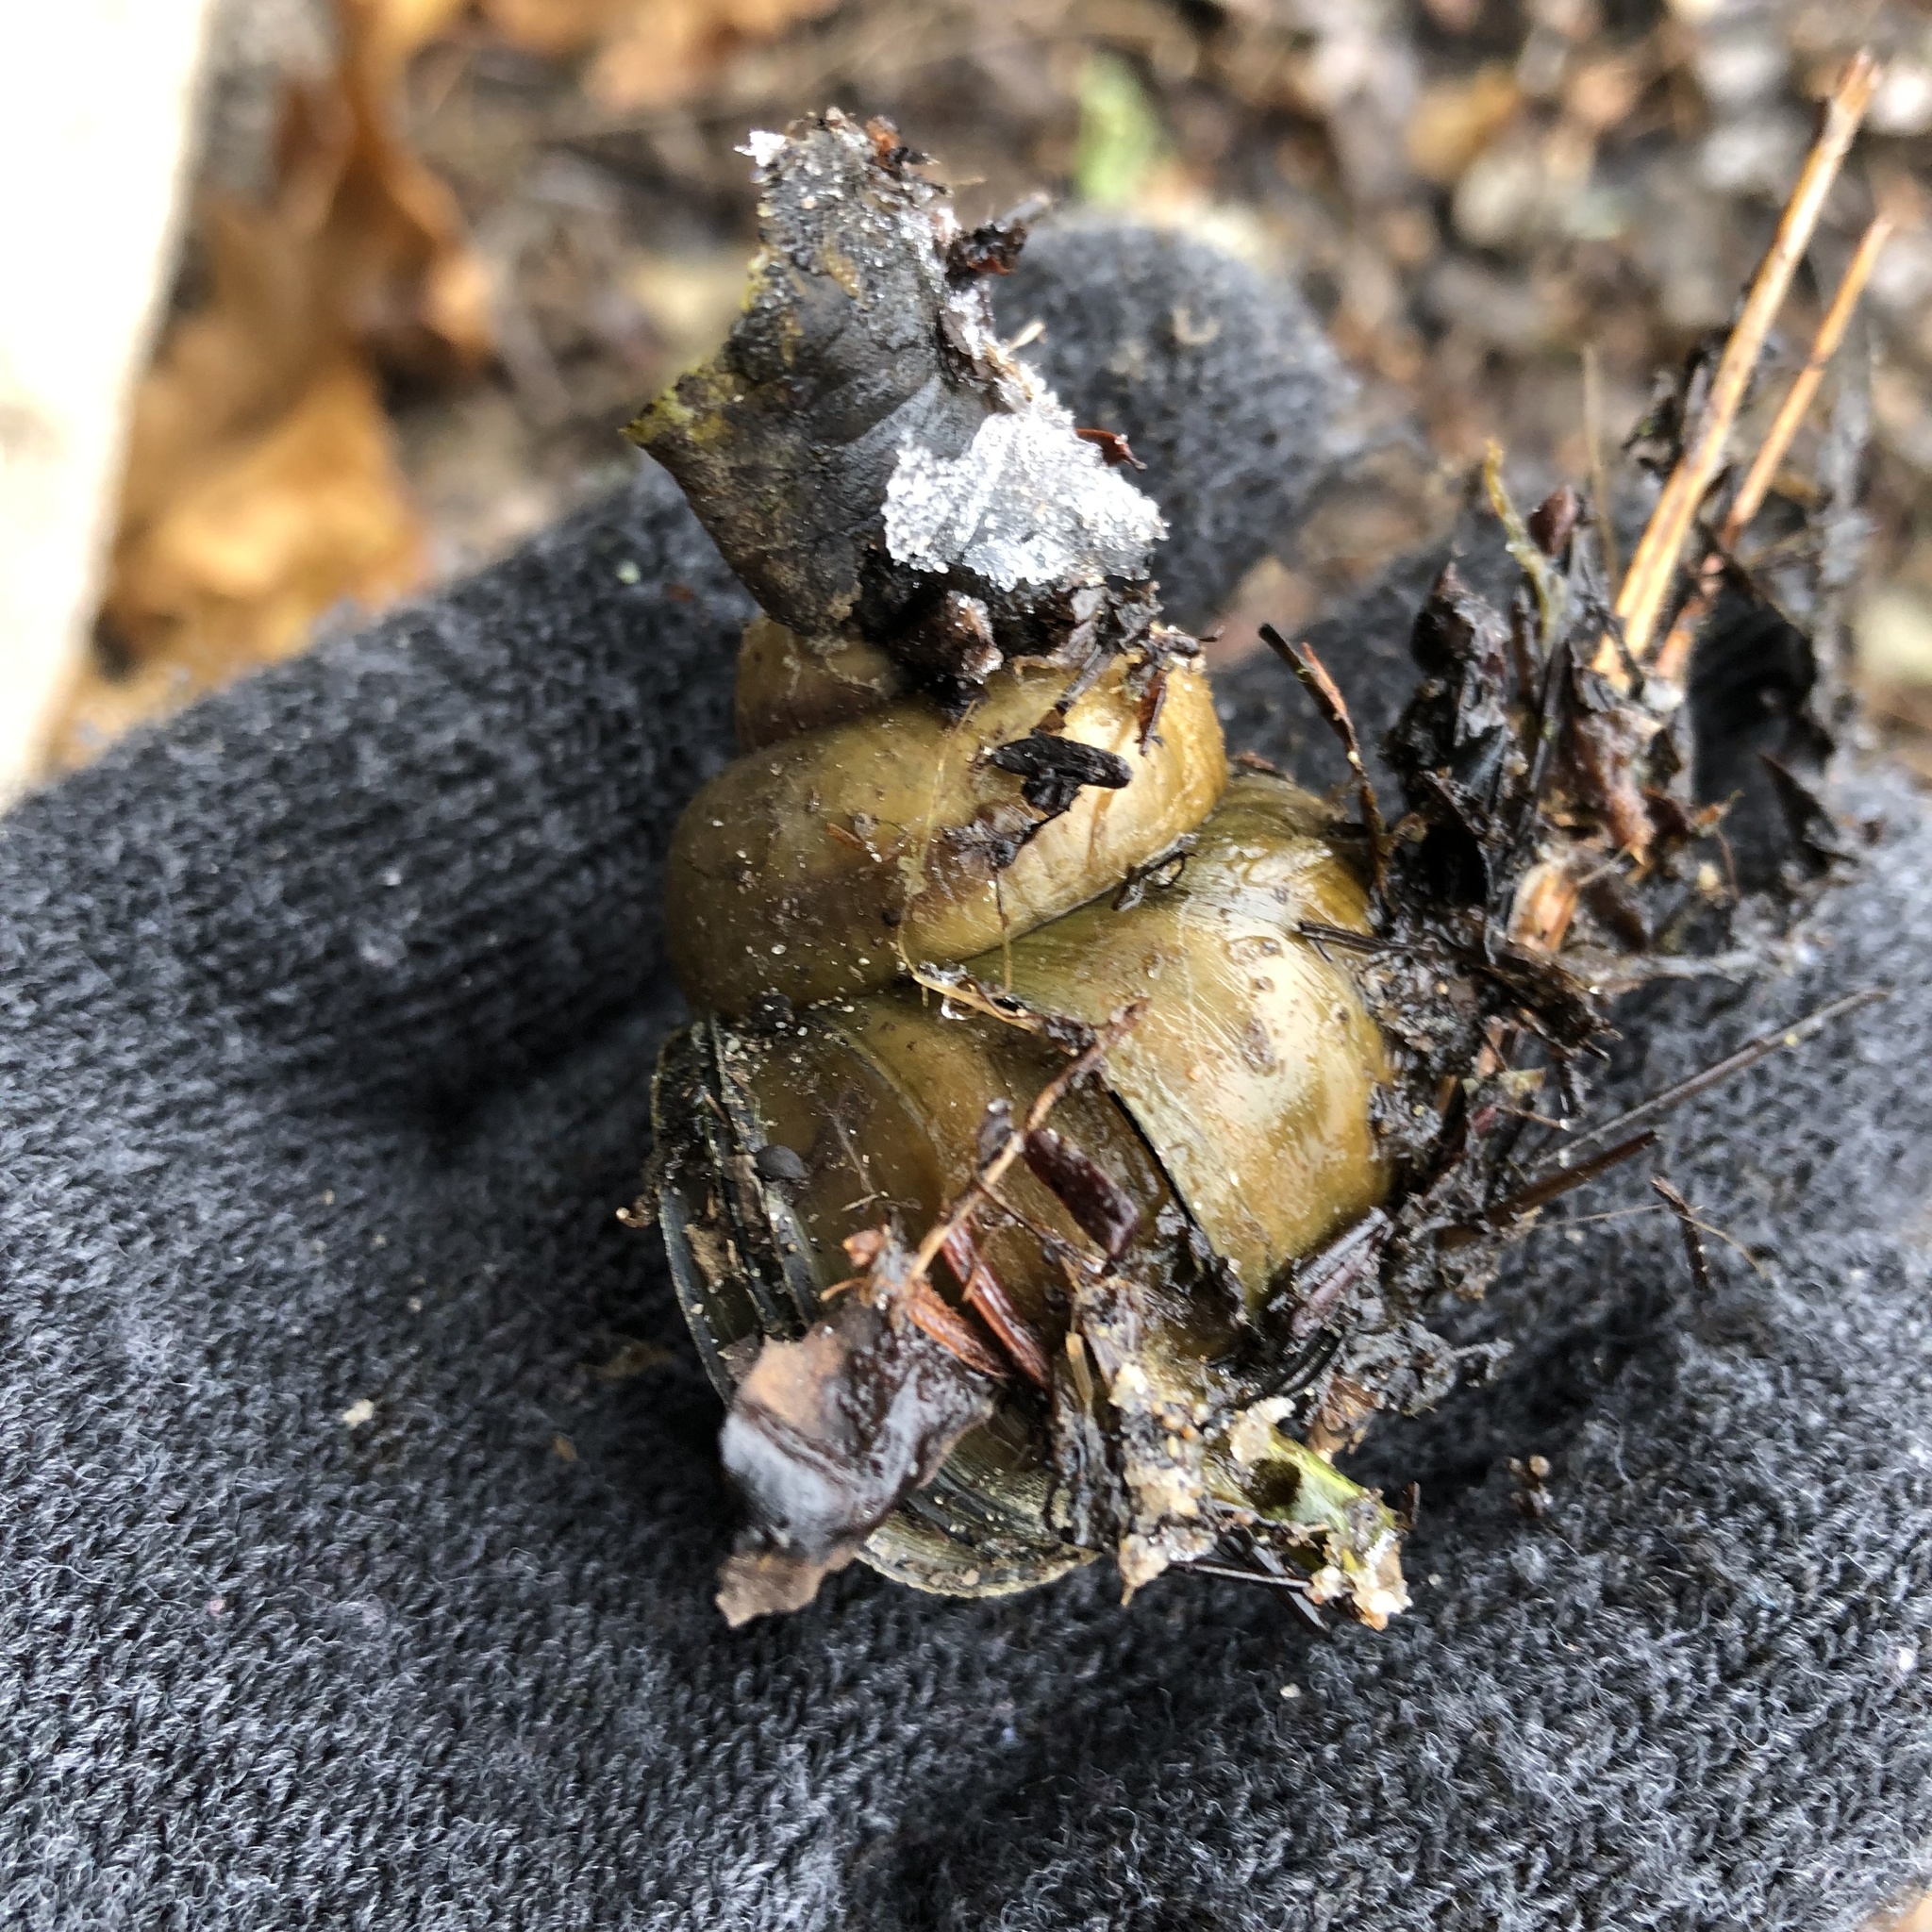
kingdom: Animalia
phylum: Mollusca
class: Gastropoda
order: Architaenioglossa
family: Viviparidae
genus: Cipangopaludina
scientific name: Cipangopaludina chinensis
